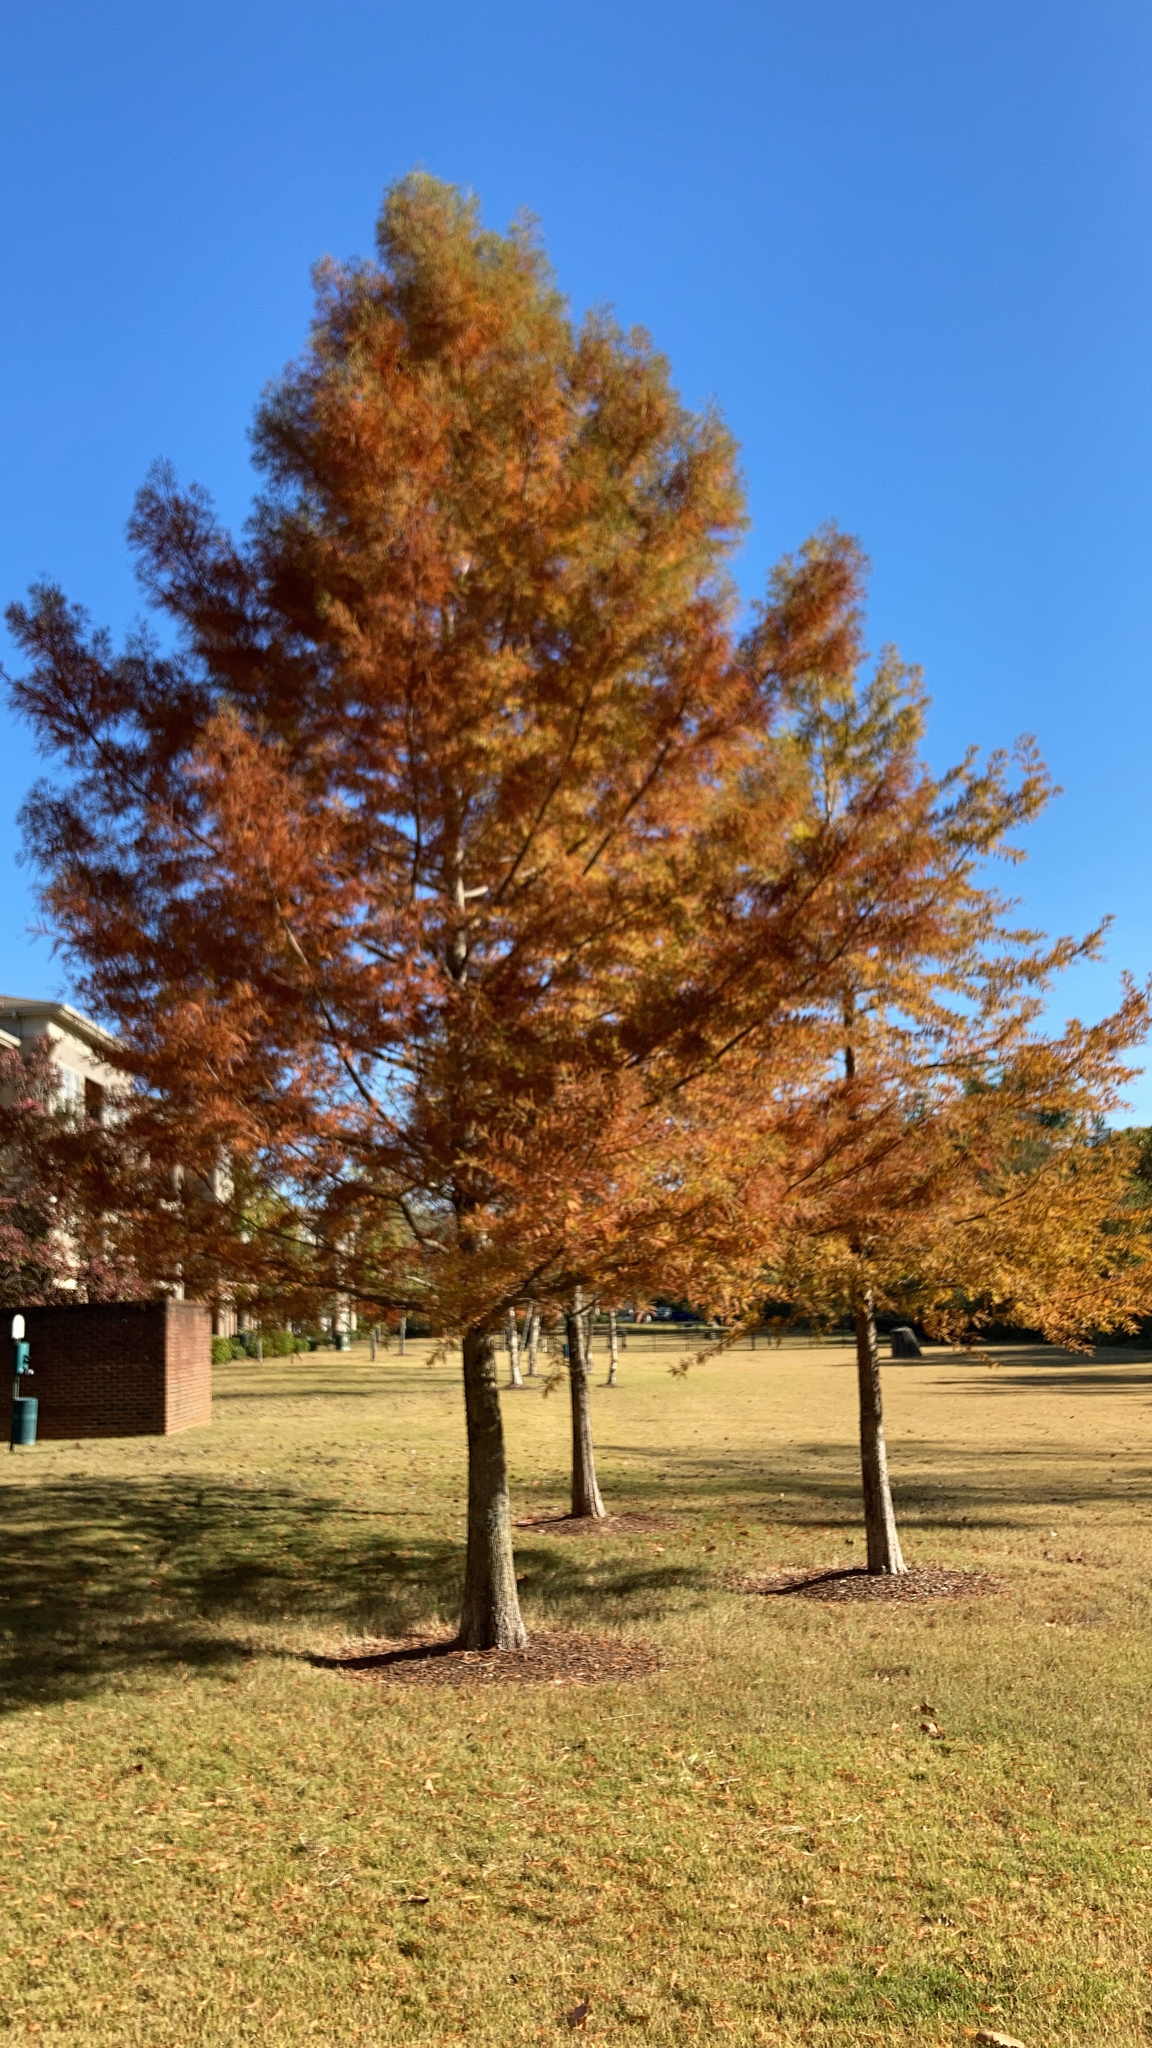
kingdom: Plantae
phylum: Tracheophyta
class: Pinopsida
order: Pinales
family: Cupressaceae
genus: Taxodium
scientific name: Taxodium distichum
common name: Bald cypress
